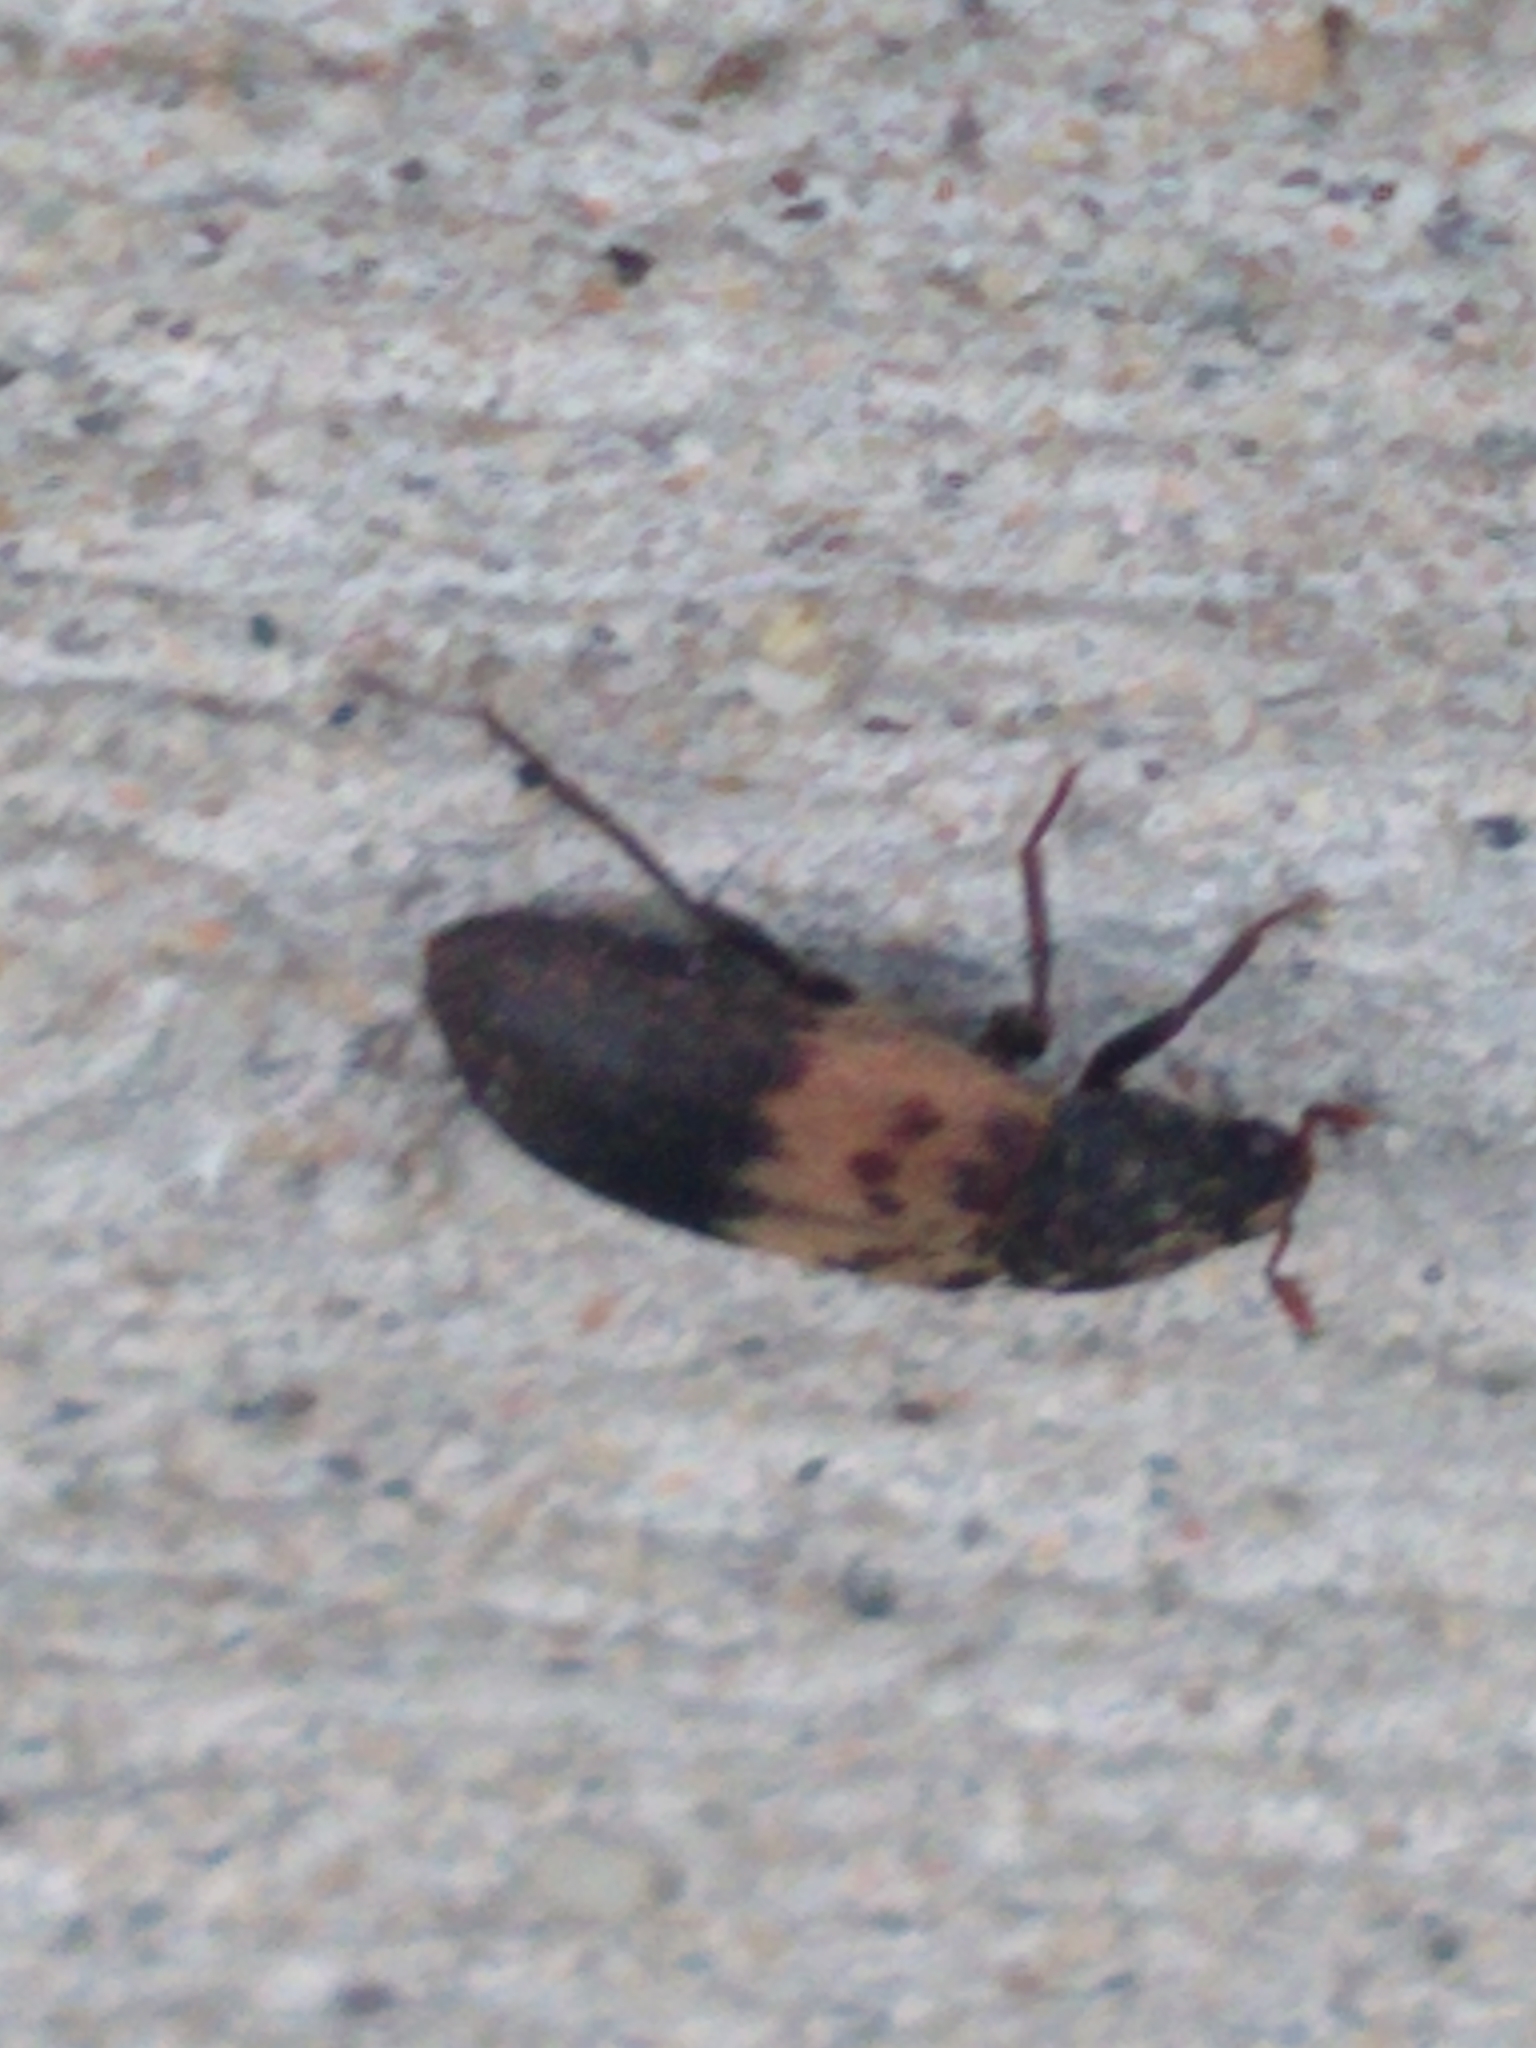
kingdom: Animalia
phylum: Arthropoda
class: Insecta
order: Coleoptera
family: Dermestidae
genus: Dermestes
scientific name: Dermestes lardarius
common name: Larder beetle
